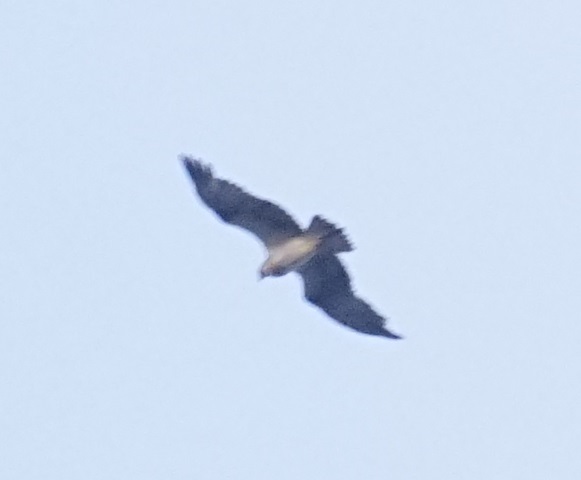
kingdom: Animalia
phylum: Chordata
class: Aves
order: Accipitriformes
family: Pandionidae
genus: Pandion
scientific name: Pandion cristatus
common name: Eastern osprey
